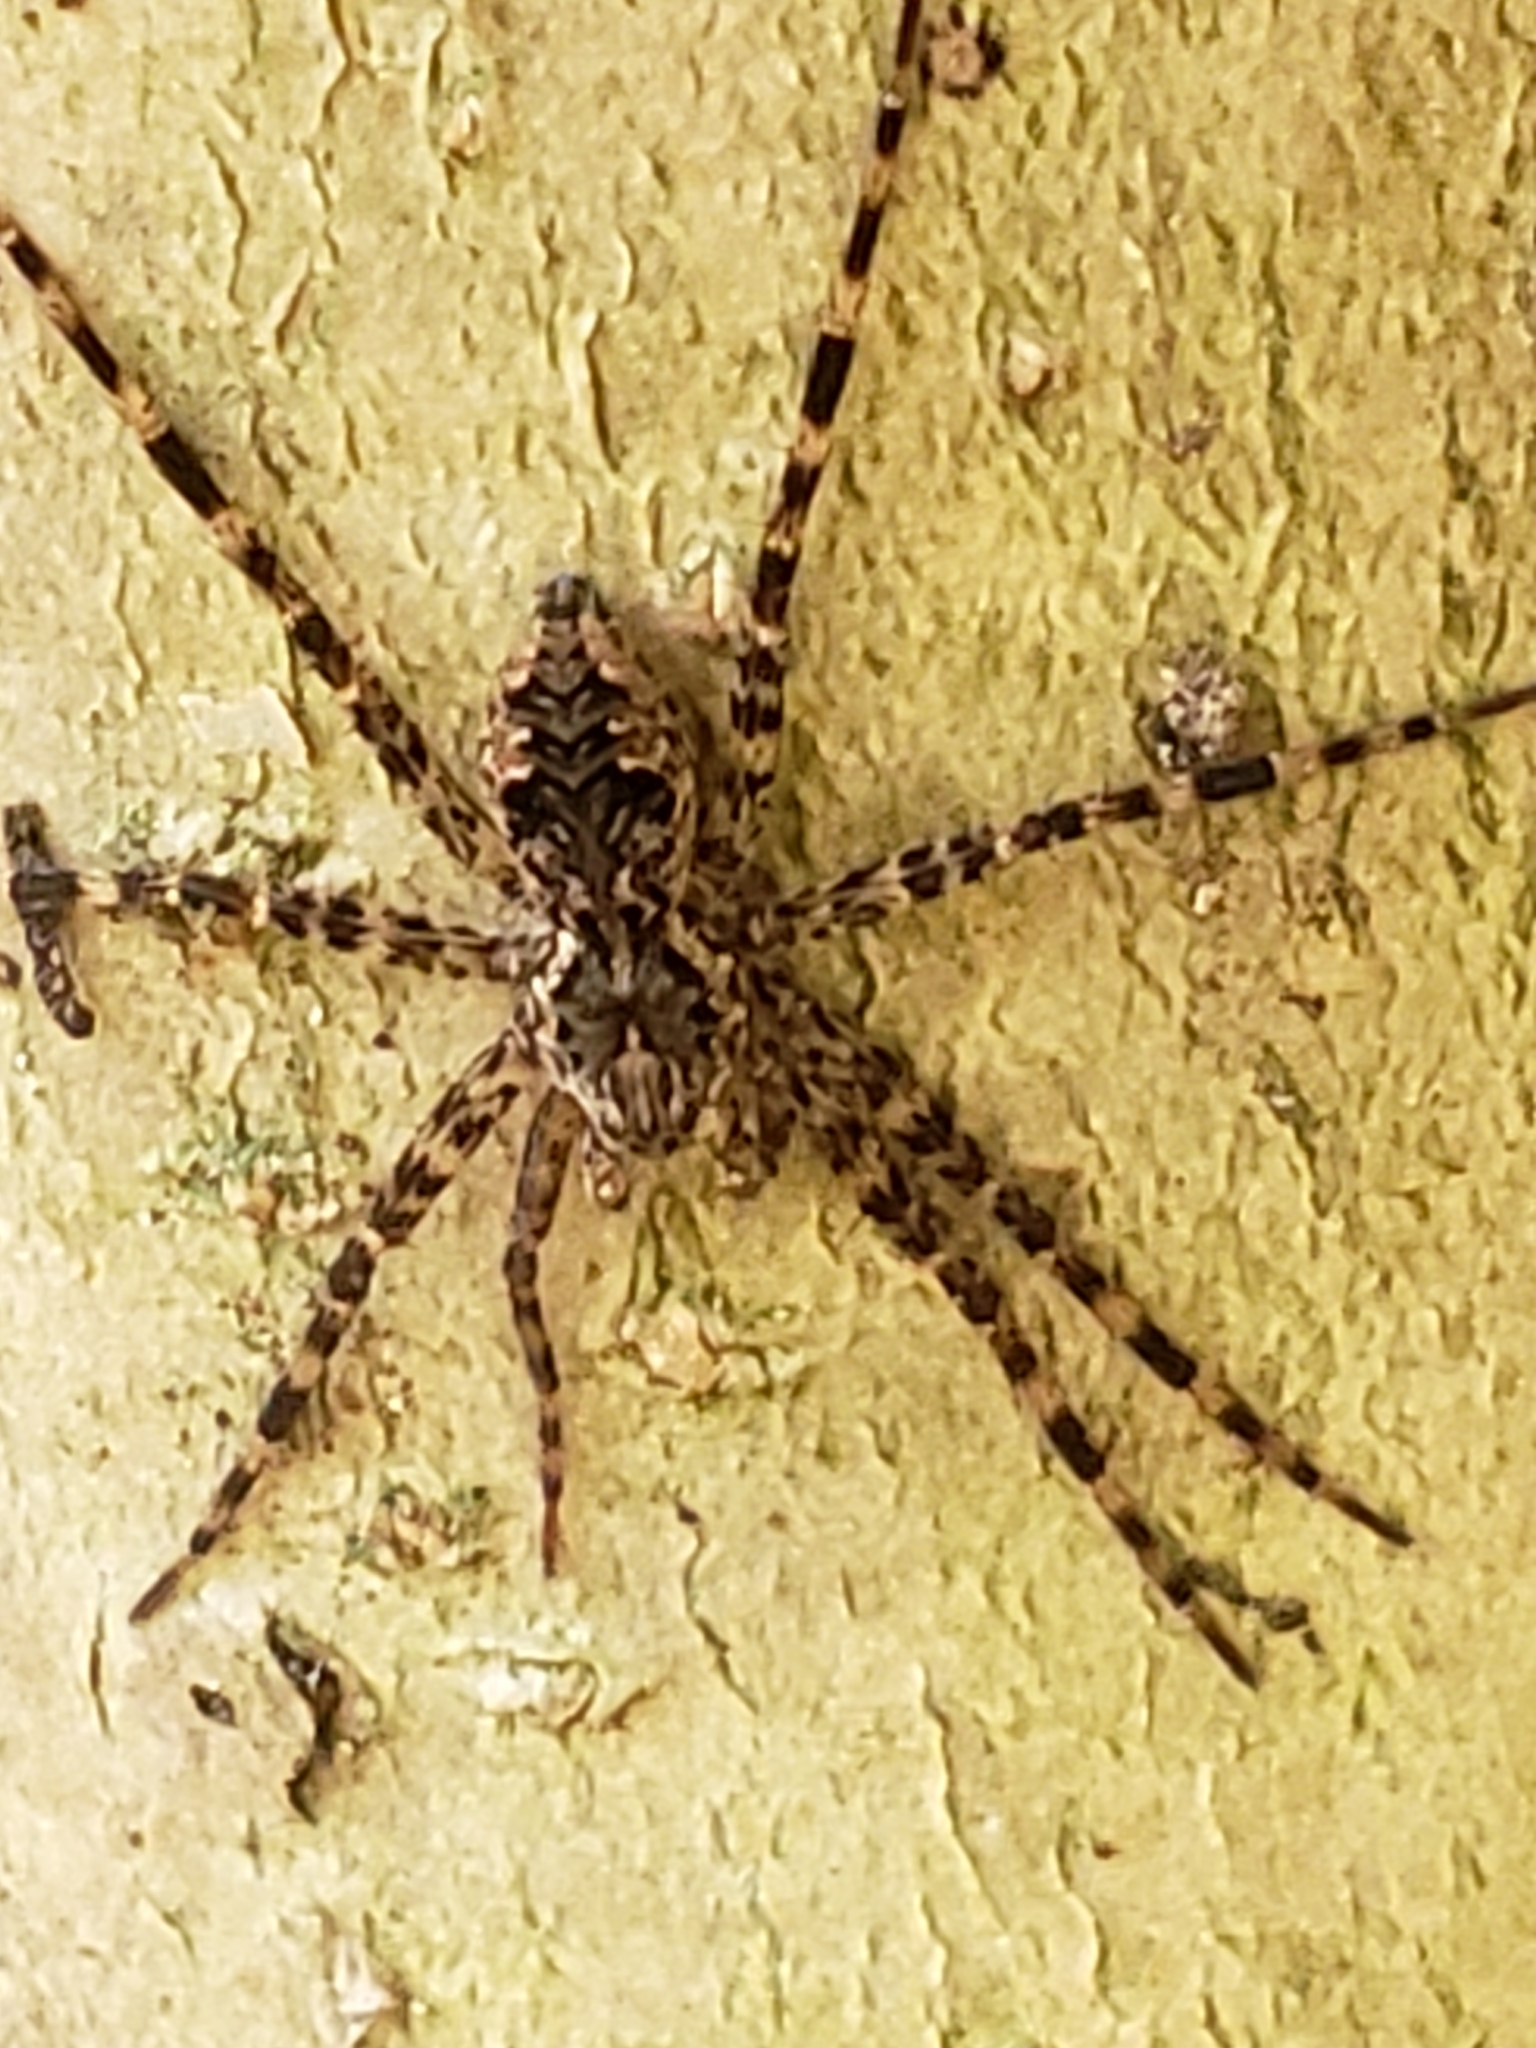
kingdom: Animalia
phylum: Arthropoda
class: Arachnida
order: Araneae
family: Pisauridae
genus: Dolomedes
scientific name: Dolomedes tenebrosus
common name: Dark fishing spider
